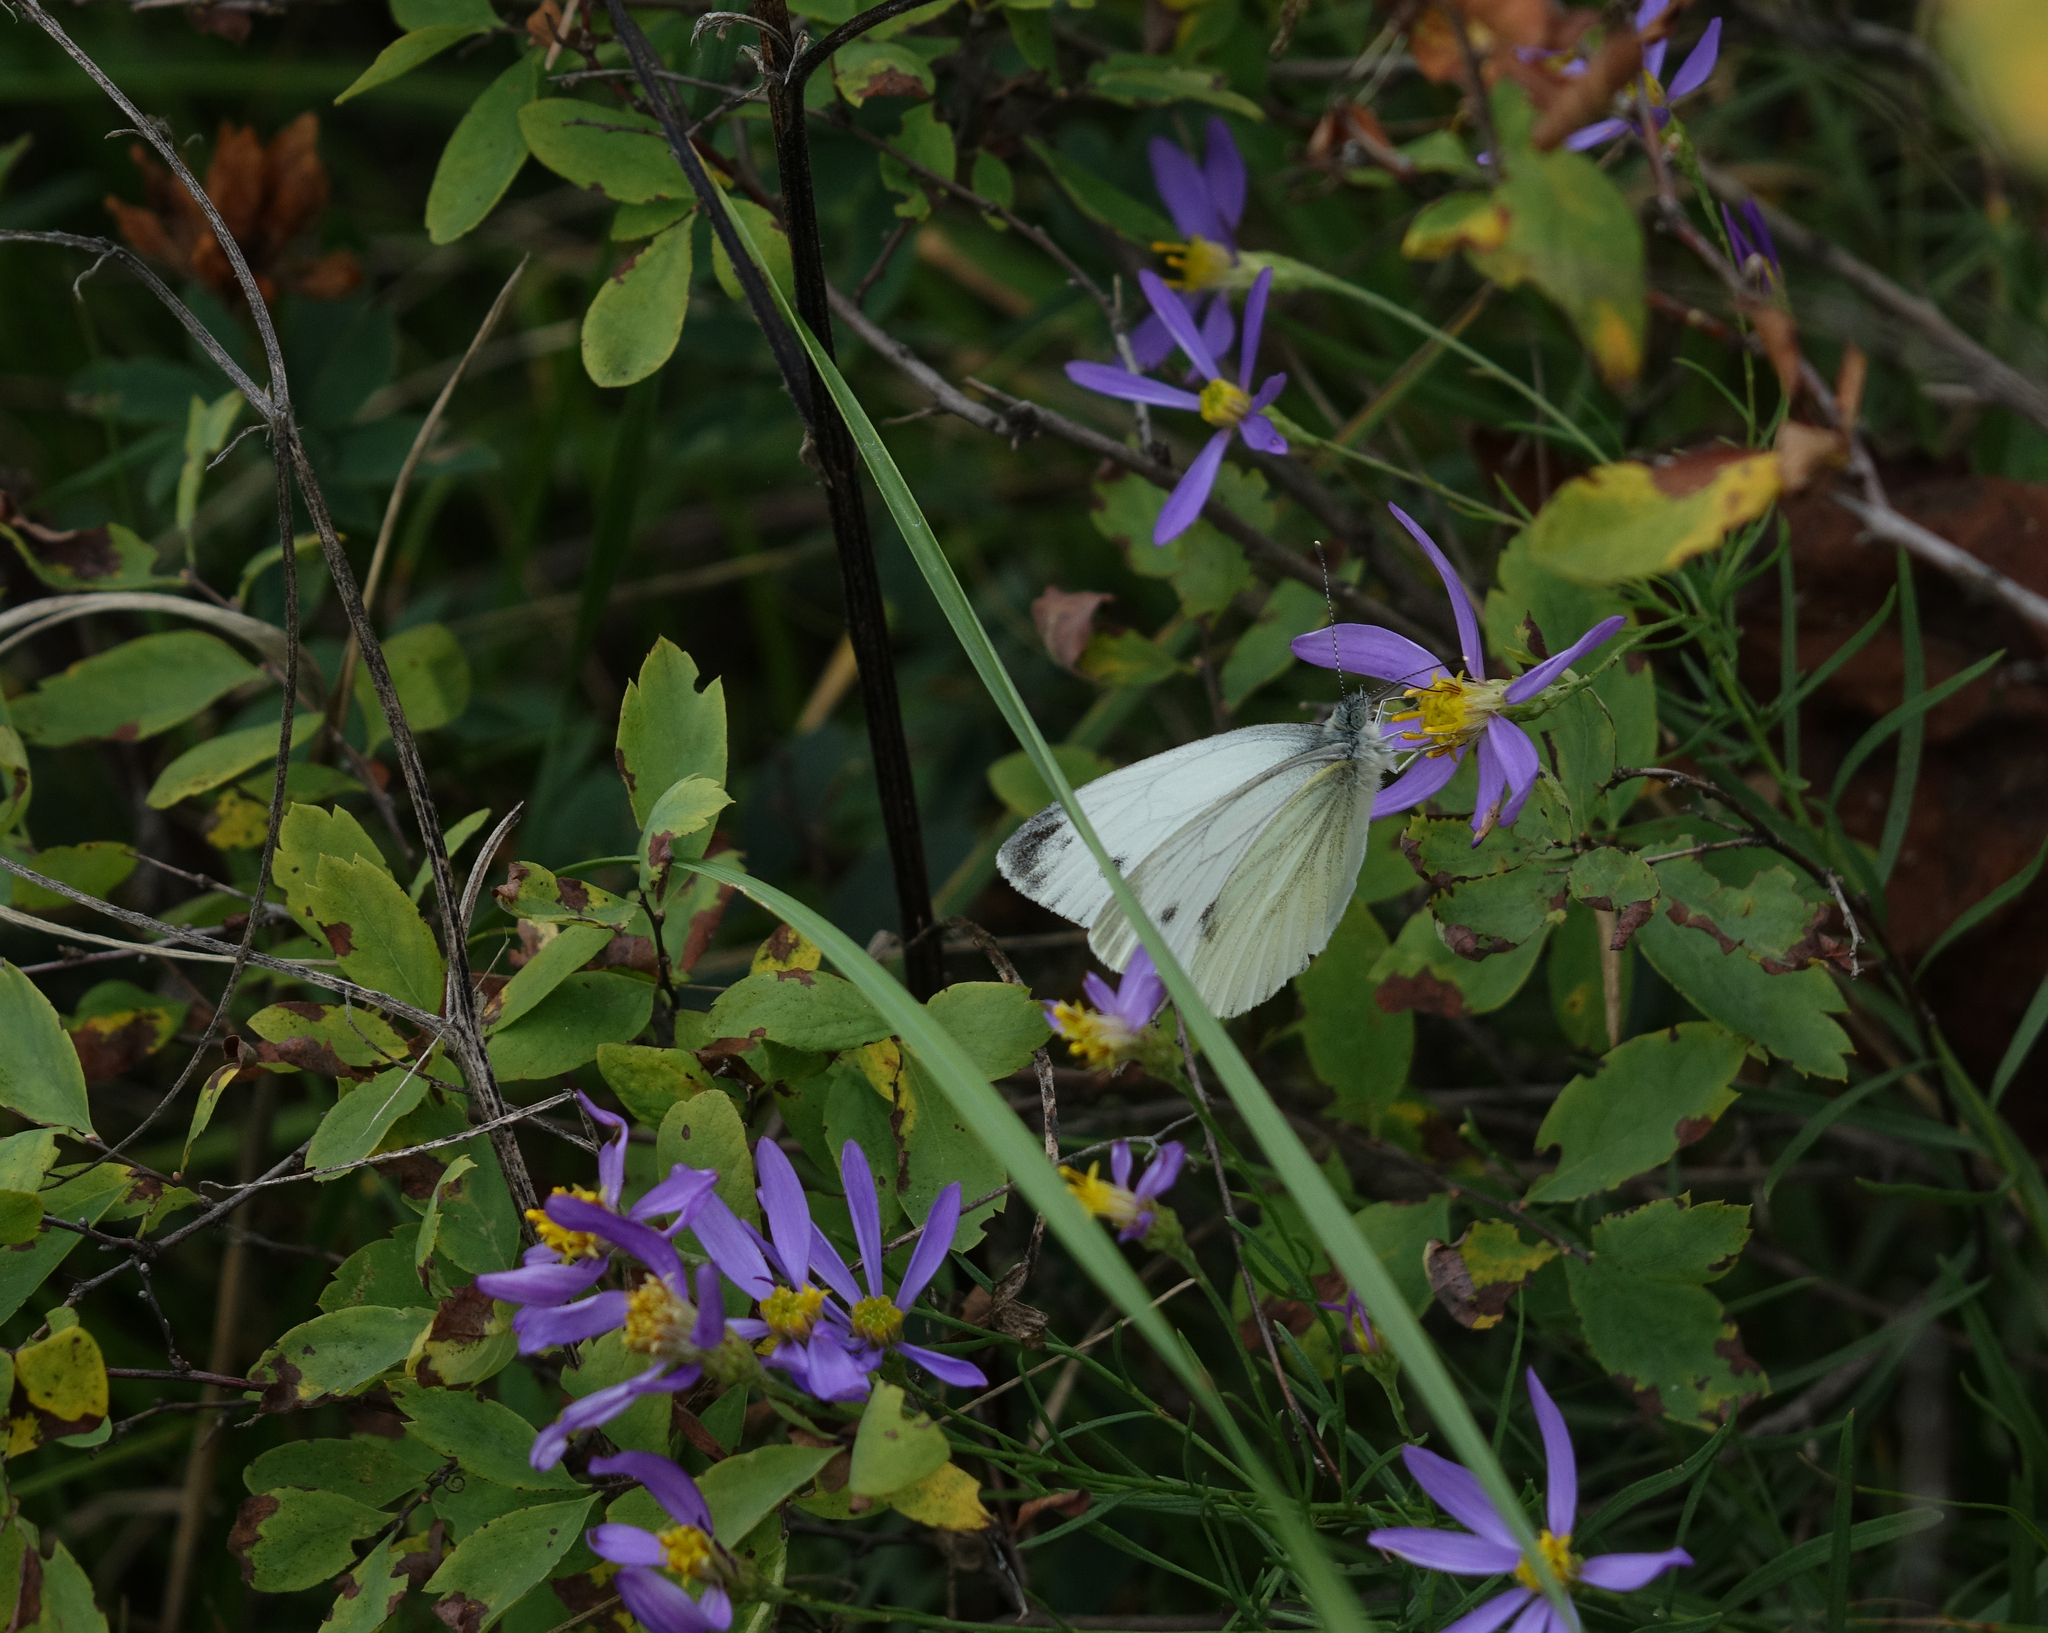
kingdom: Plantae
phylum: Tracheophyta
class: Magnoliopsida
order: Asterales
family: Asteraceae
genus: Galatella
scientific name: Galatella angustissima
